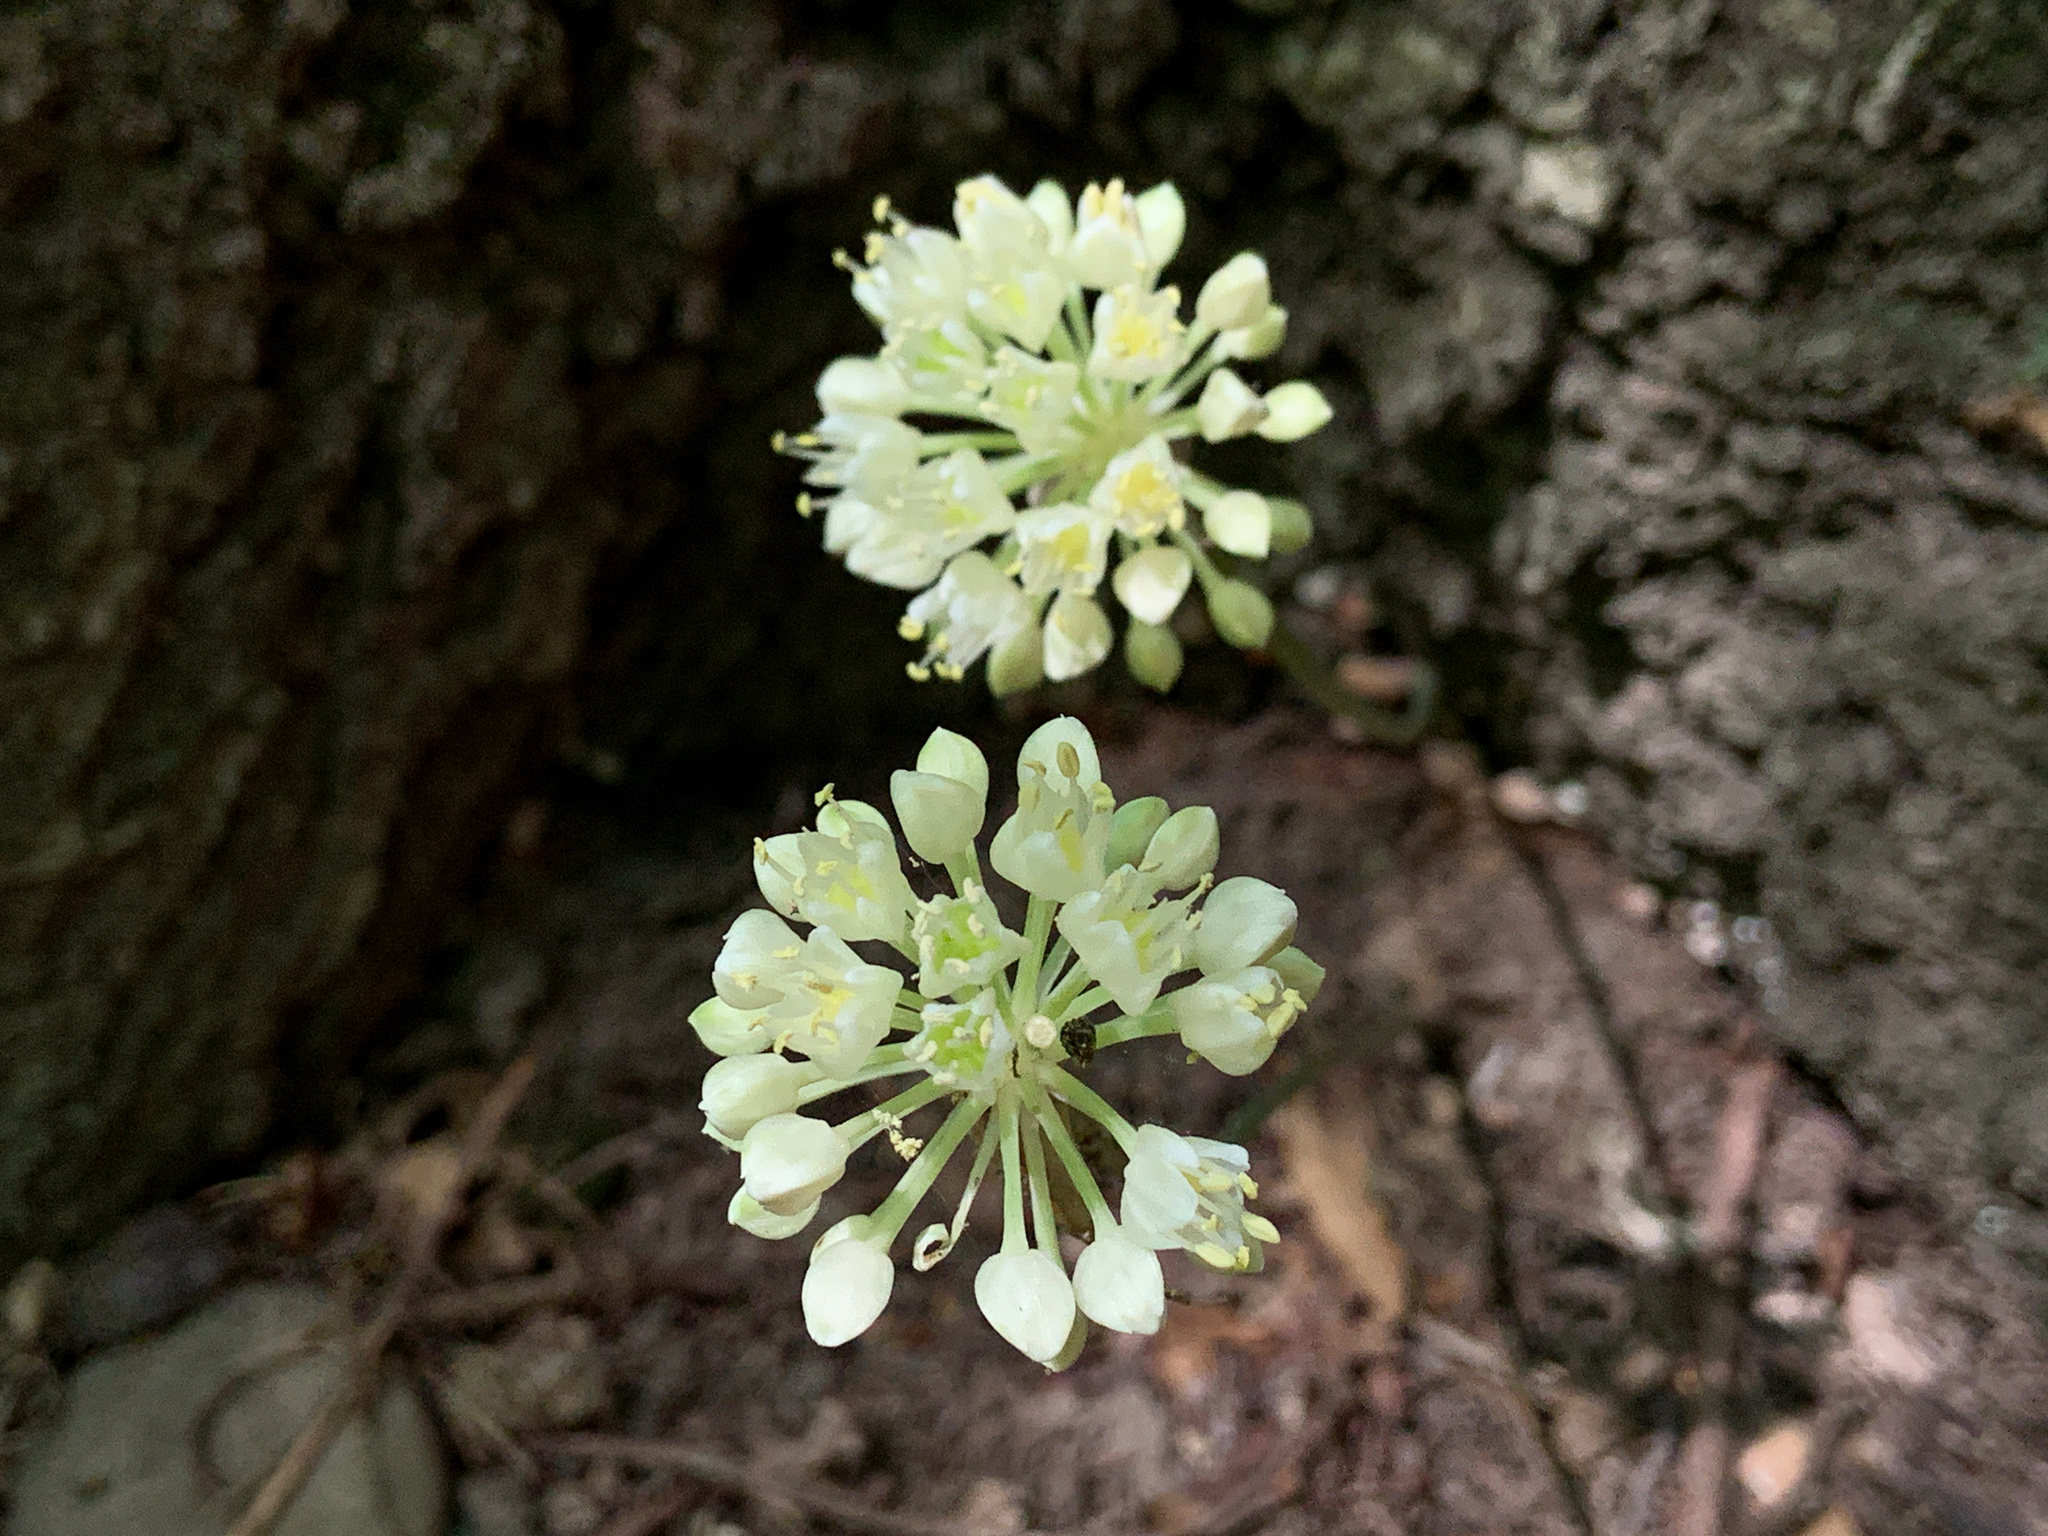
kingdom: Plantae
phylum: Tracheophyta
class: Liliopsida
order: Asparagales
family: Amaryllidaceae
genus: Allium
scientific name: Allium tricoccum
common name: Ramp
